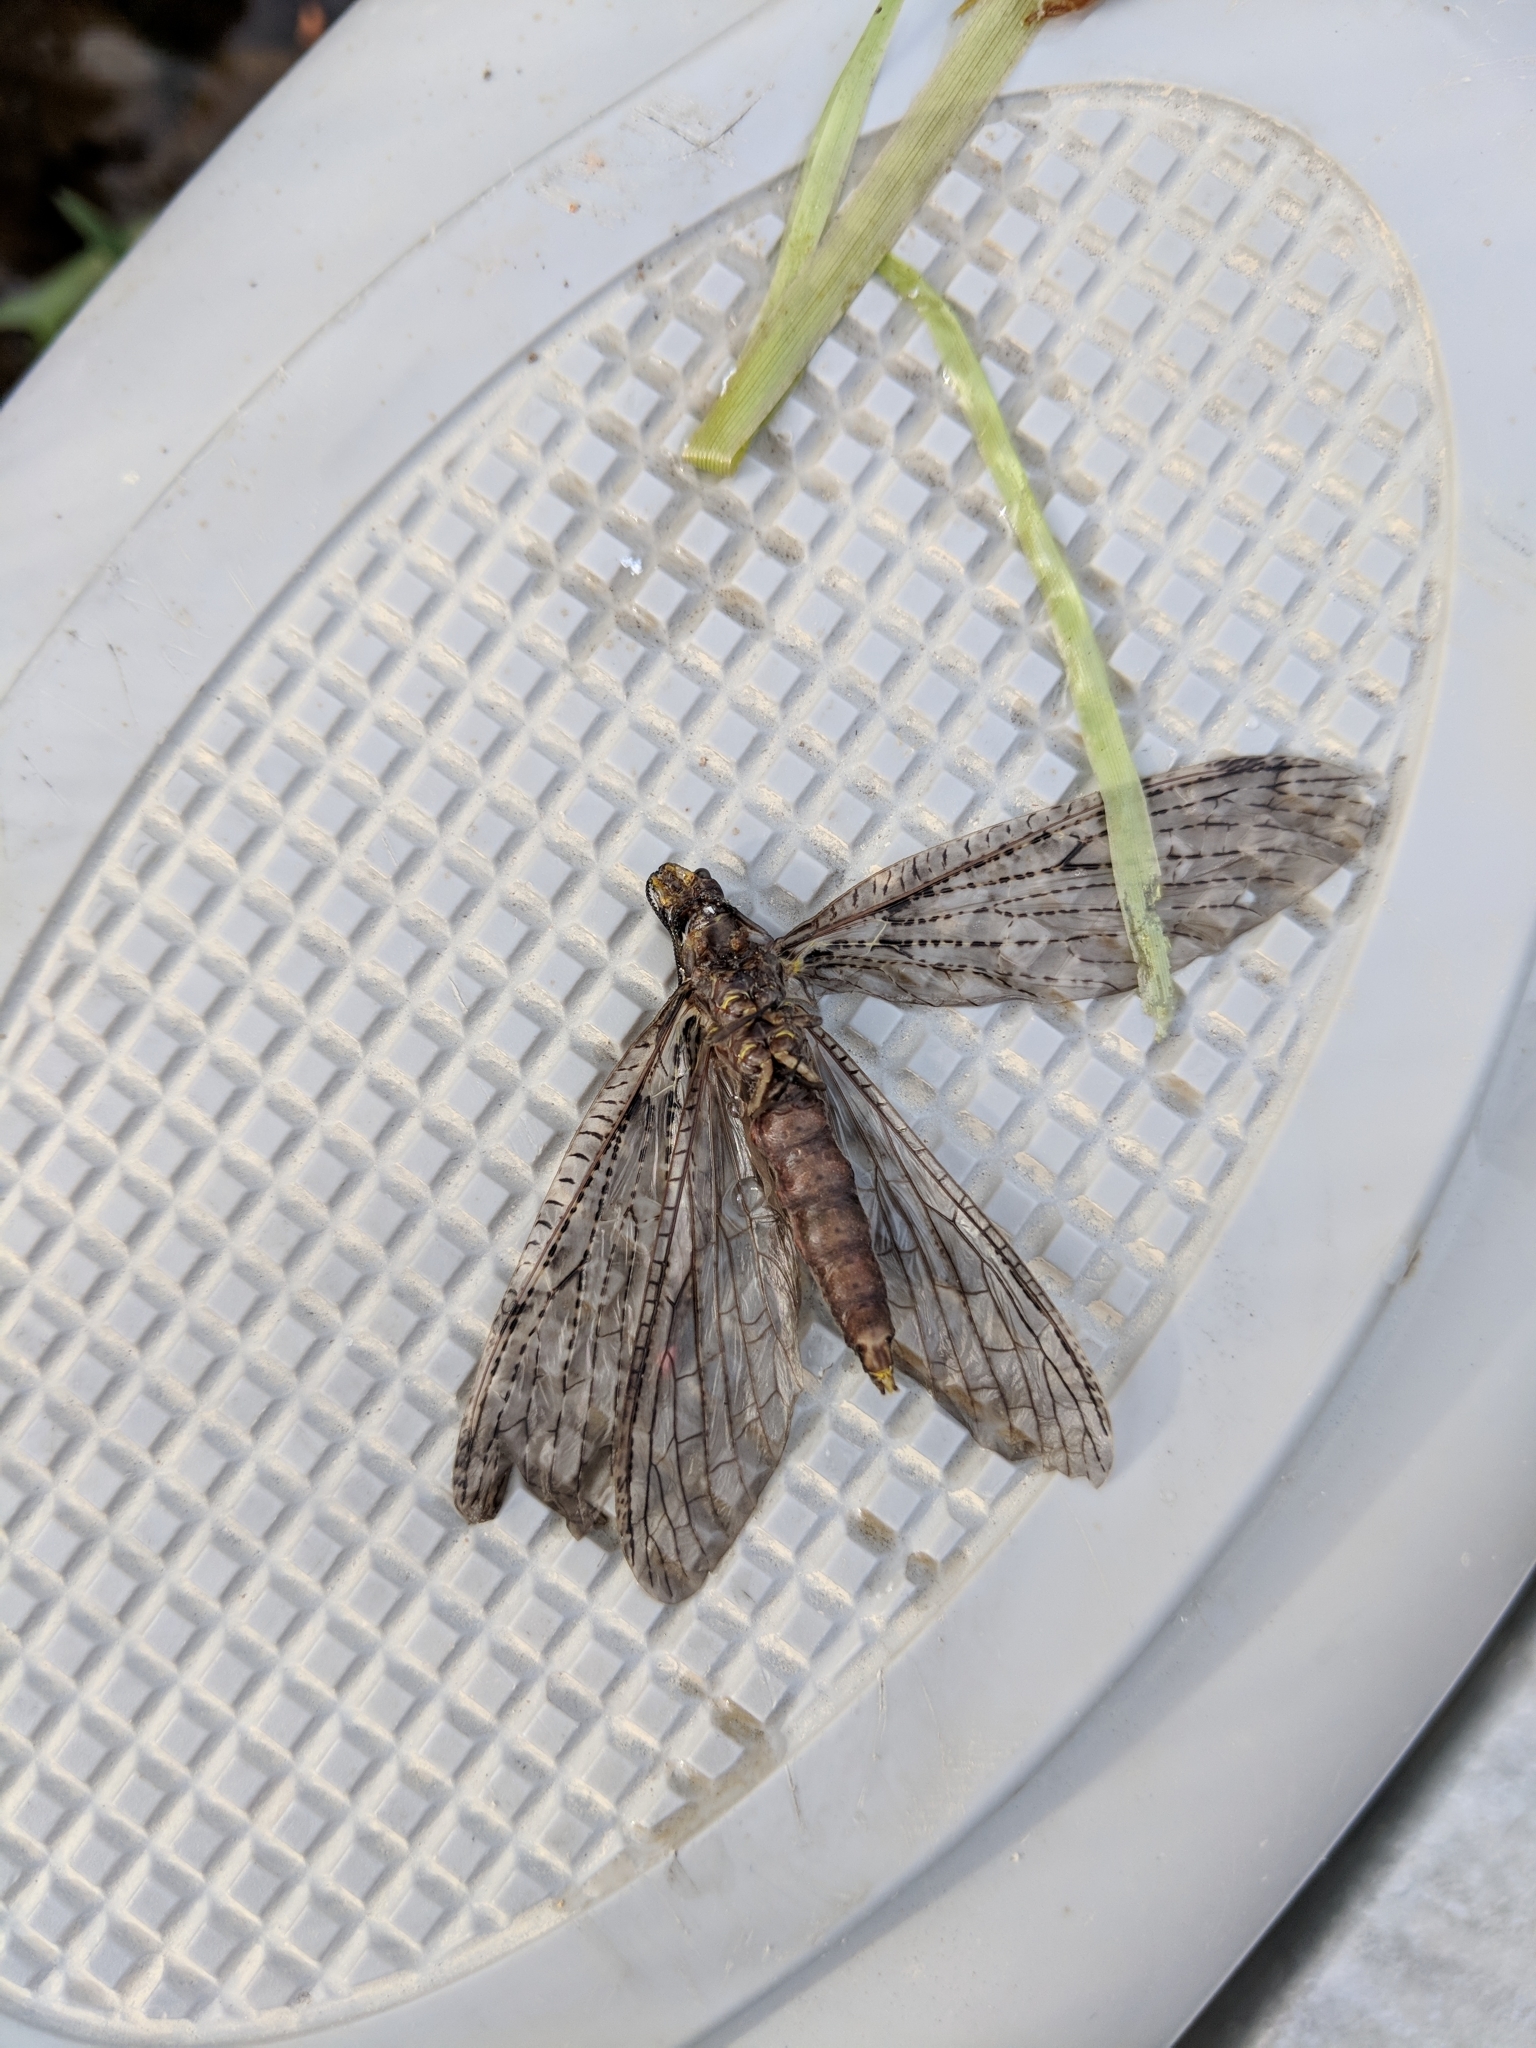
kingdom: Animalia
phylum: Arthropoda
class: Insecta
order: Megaloptera
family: Corydalidae
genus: Chauliodes
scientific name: Chauliodes rastricornis
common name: Spring fishfly
